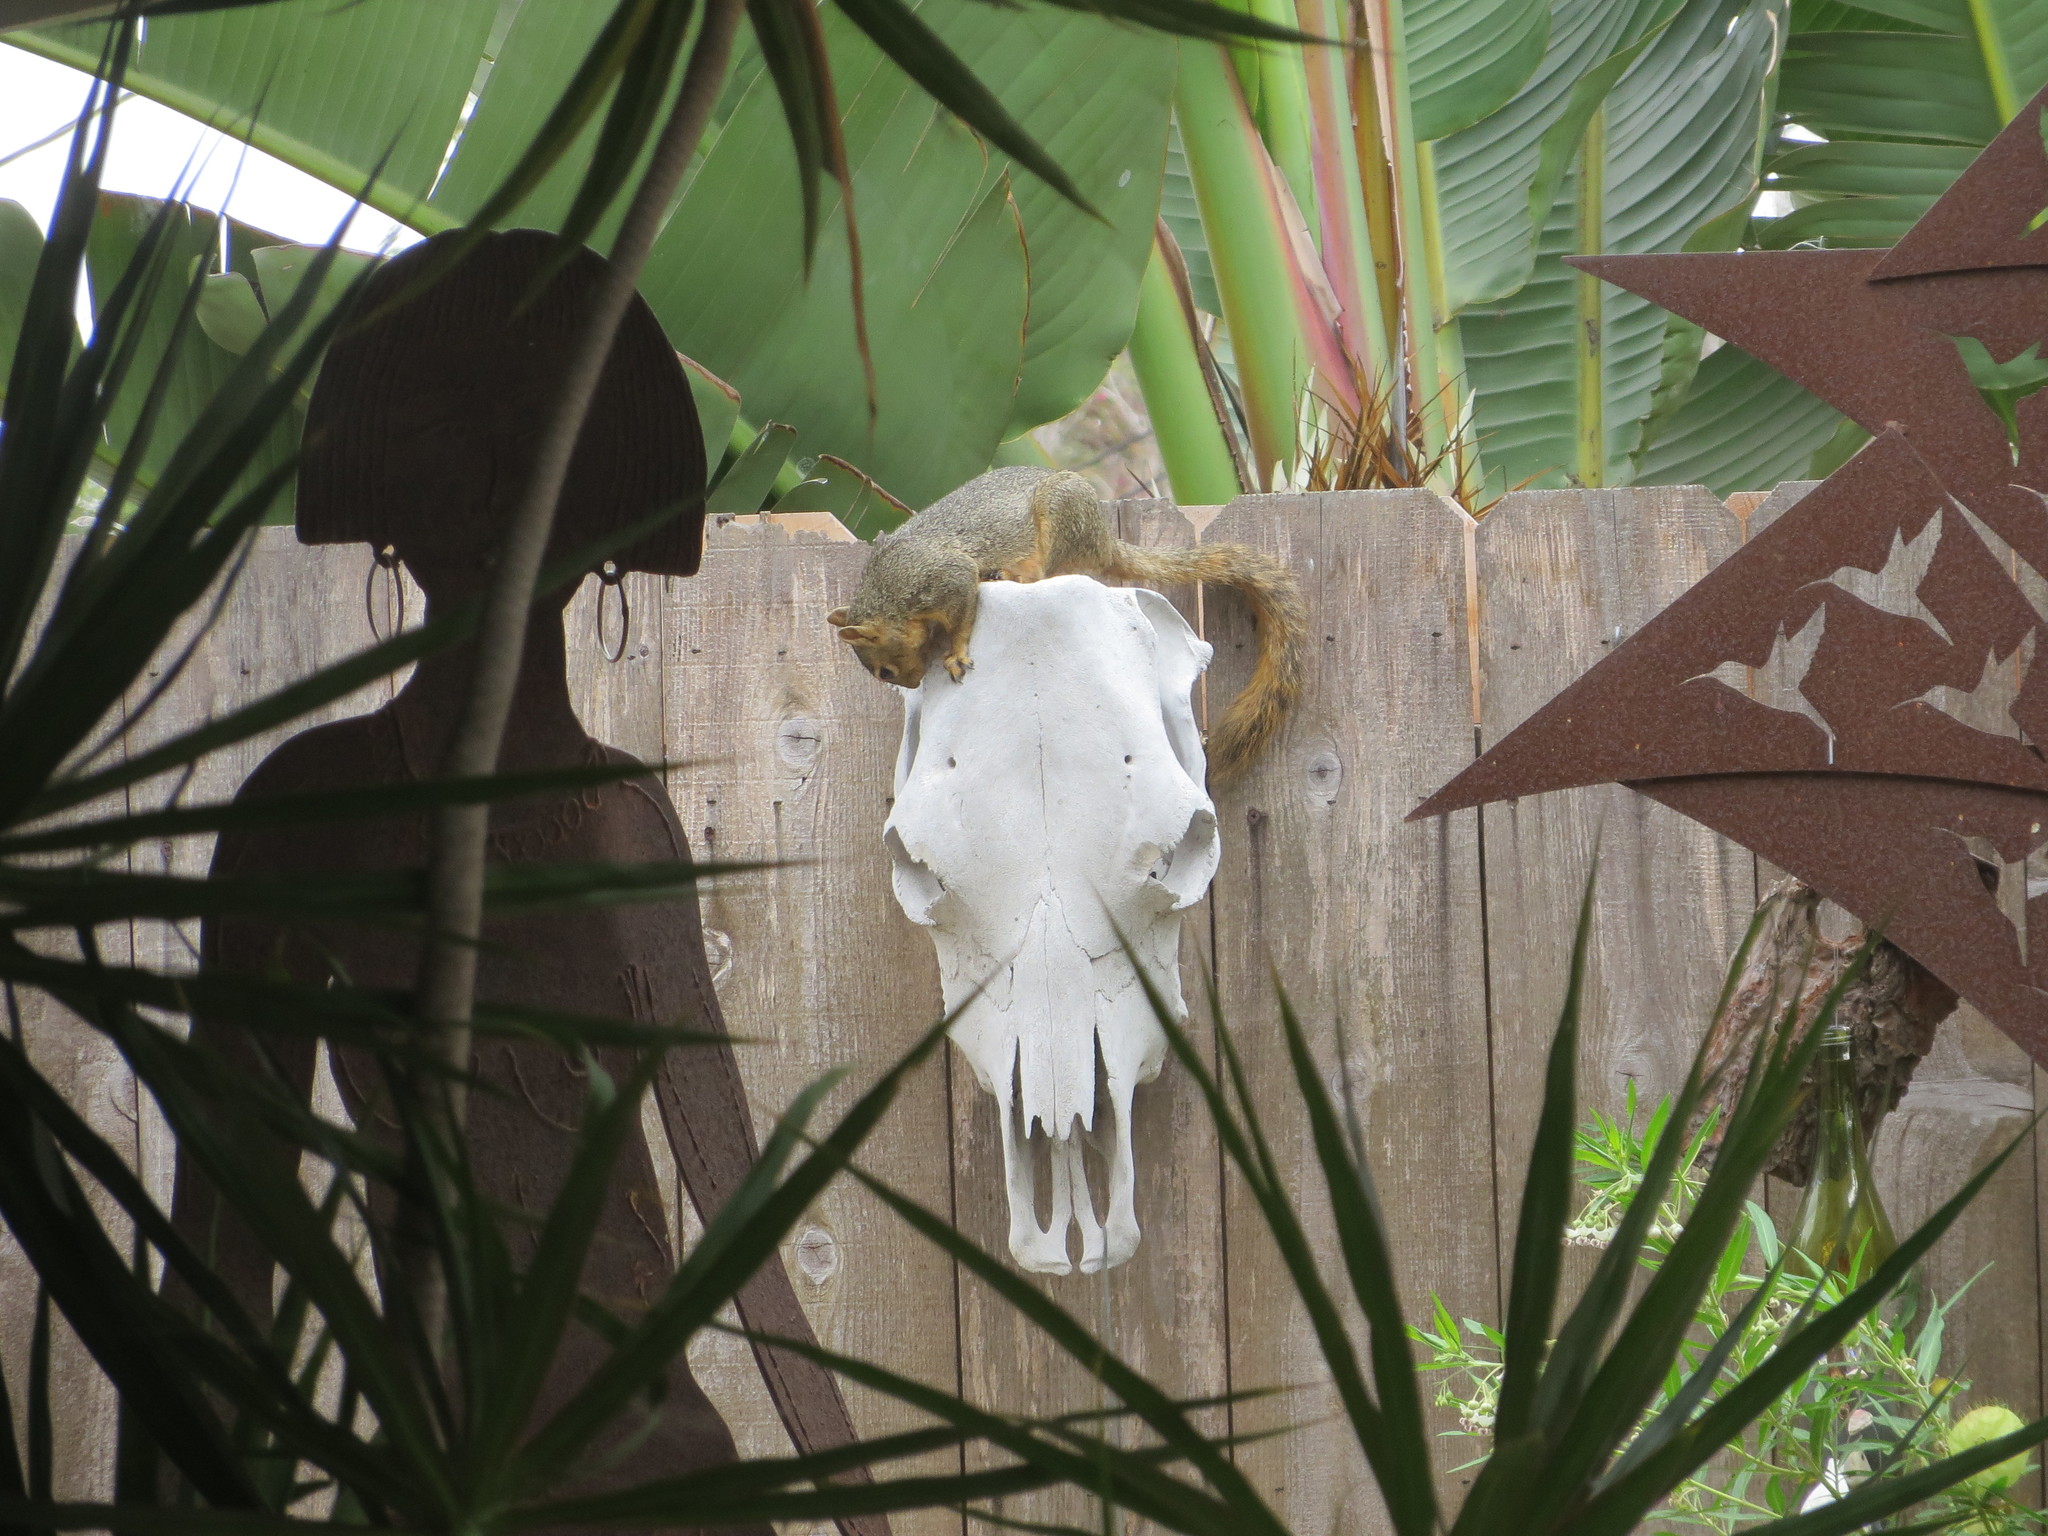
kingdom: Animalia
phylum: Chordata
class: Mammalia
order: Rodentia
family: Sciuridae
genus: Sciurus
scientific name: Sciurus niger
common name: Fox squirrel
